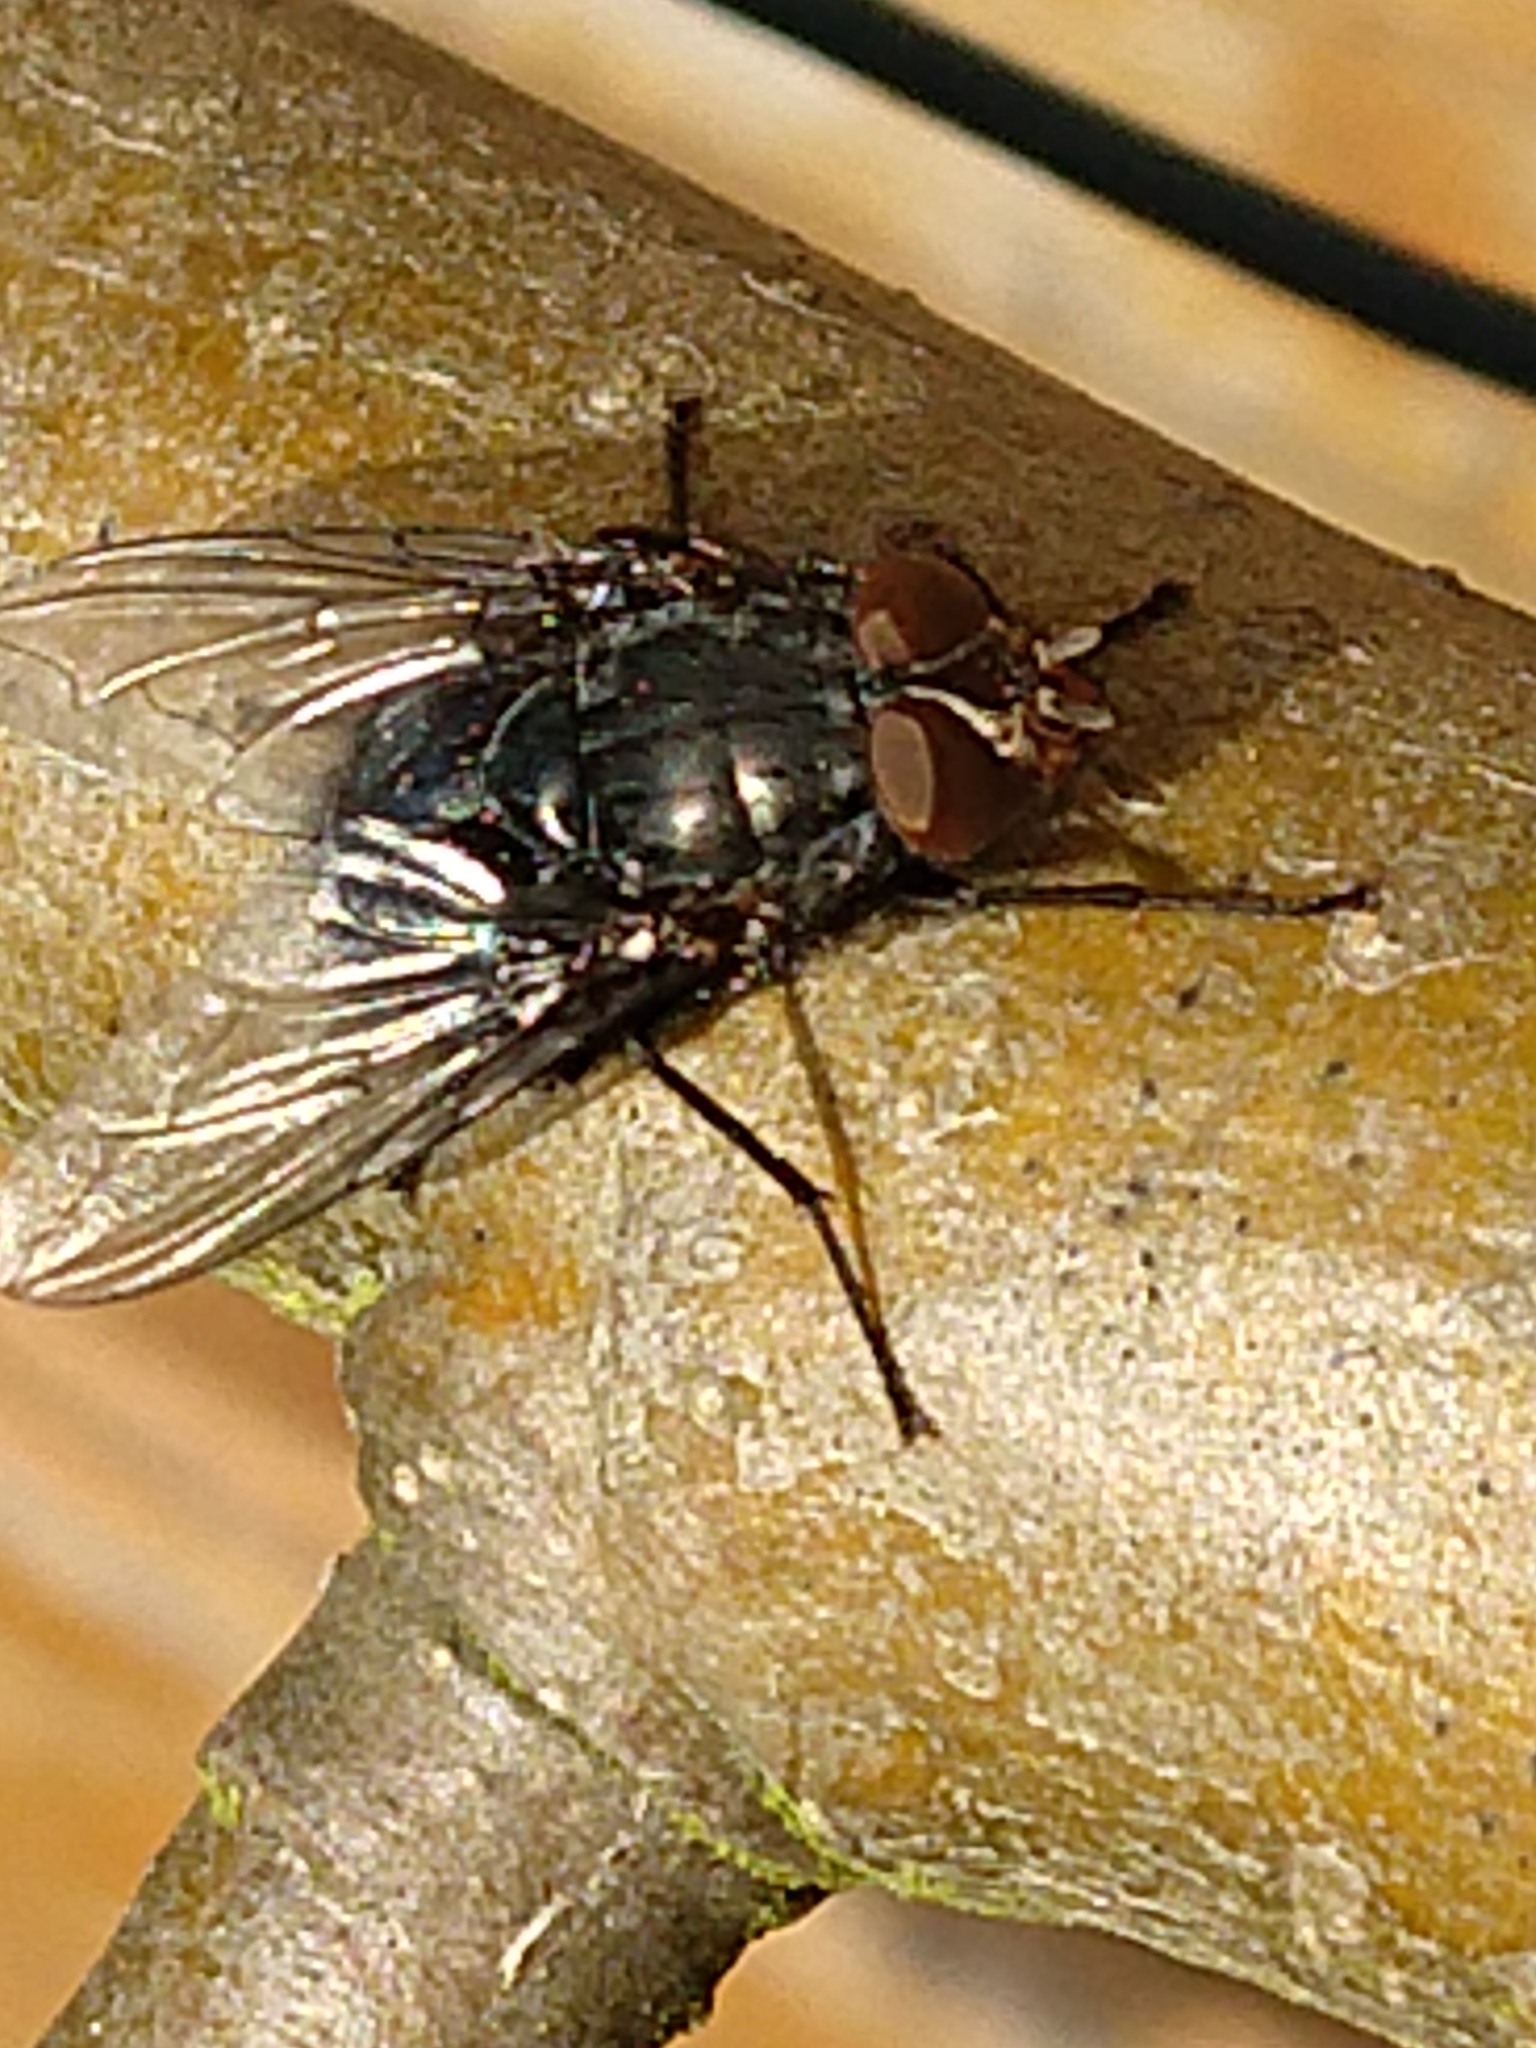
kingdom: Animalia
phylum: Arthropoda
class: Insecta
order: Diptera
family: Calliphoridae
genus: Calliphora
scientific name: Calliphora vicina
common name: Common blow flie
